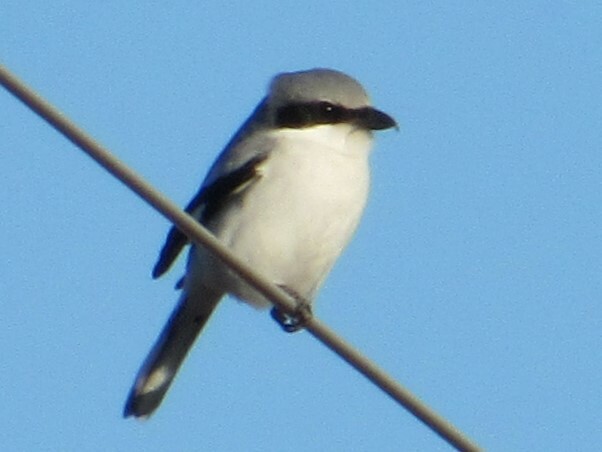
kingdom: Animalia
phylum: Chordata
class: Aves
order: Passeriformes
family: Laniidae
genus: Lanius
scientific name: Lanius ludovicianus
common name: Loggerhead shrike
